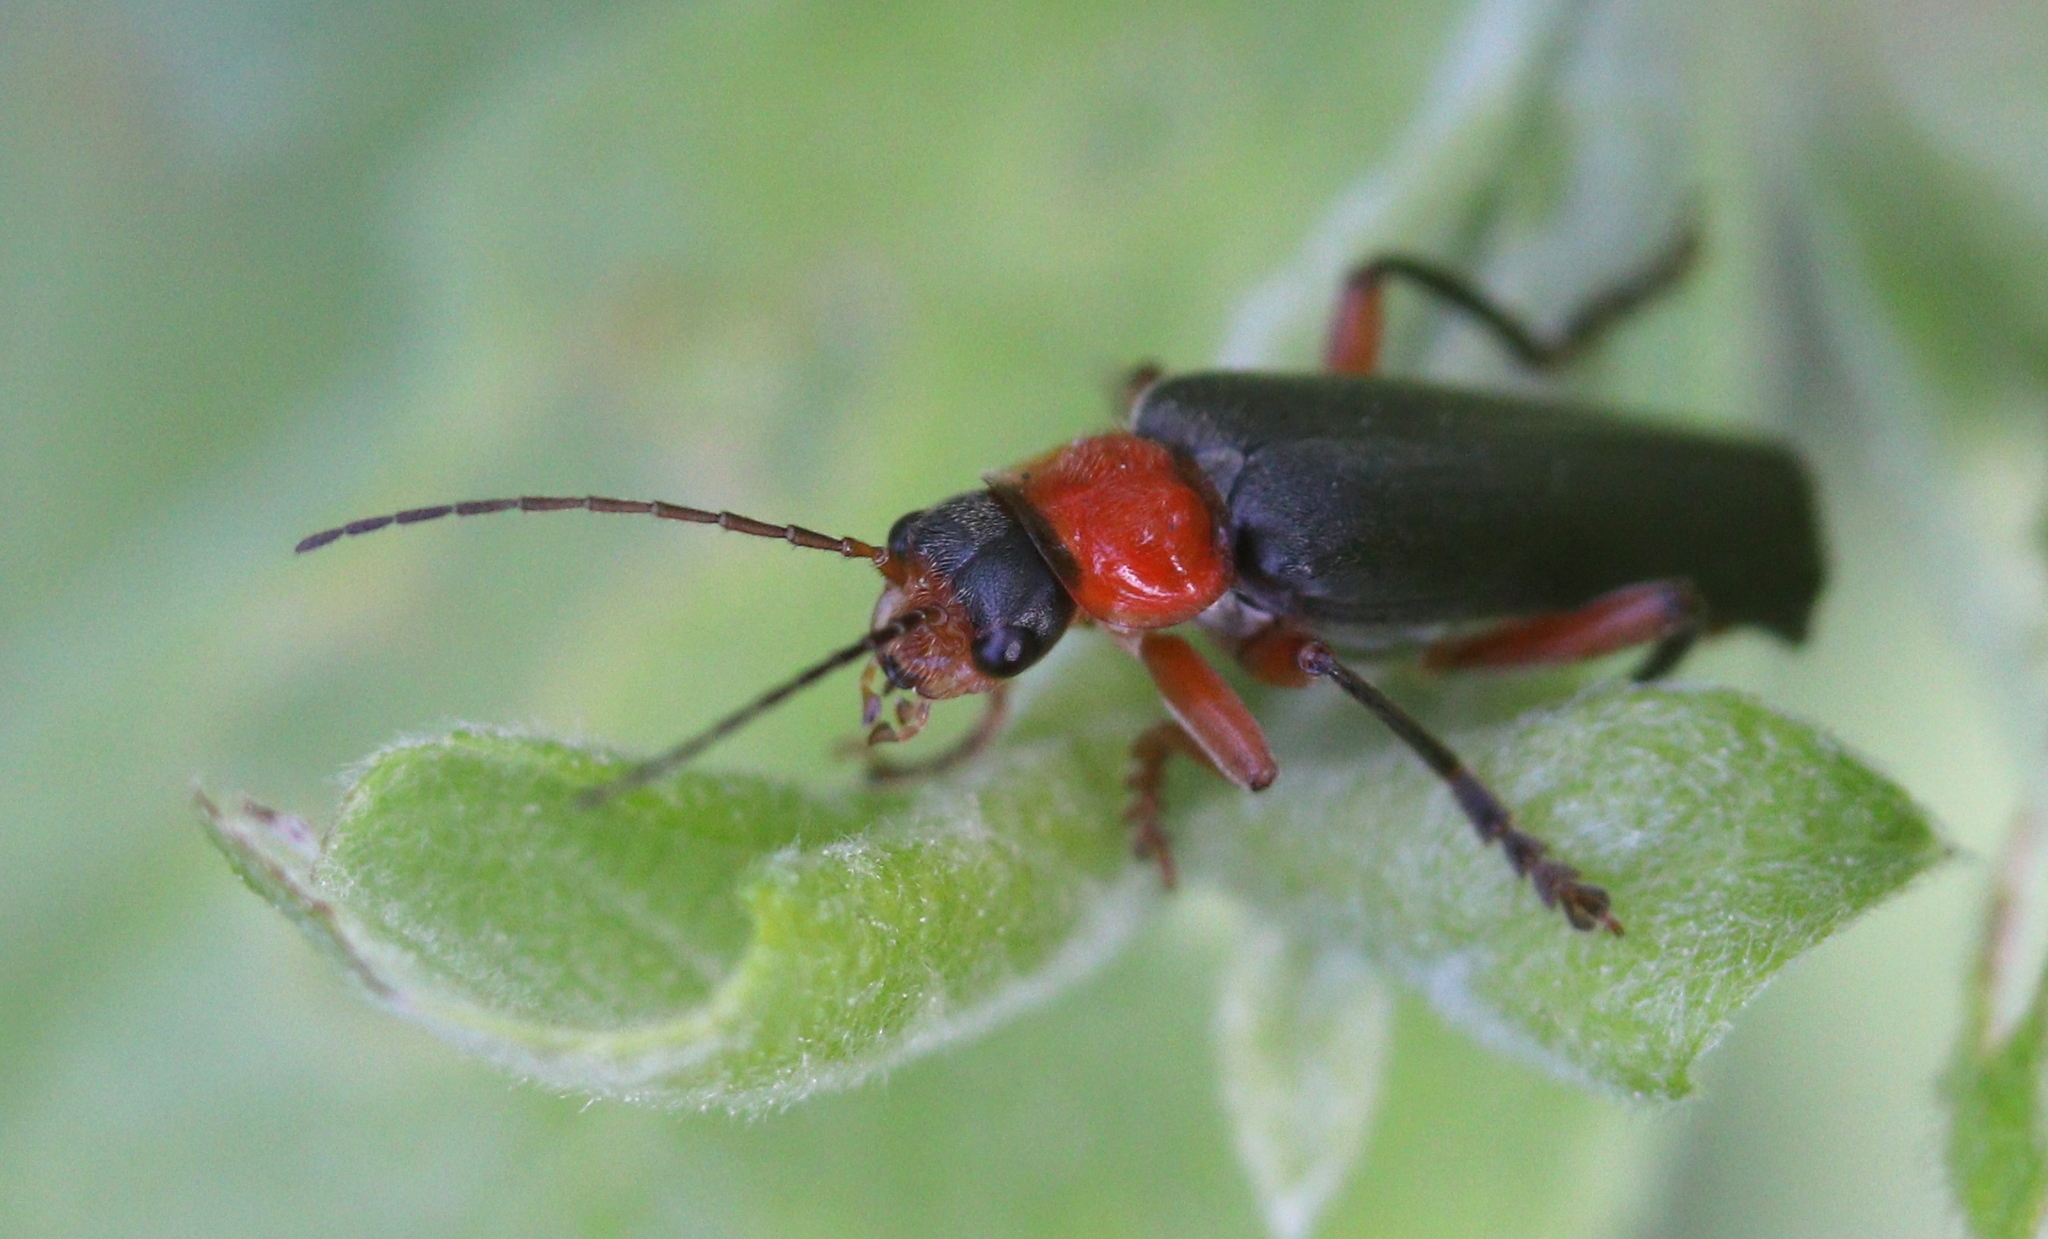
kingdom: Animalia
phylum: Arthropoda
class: Insecta
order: Coleoptera
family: Cantharidae
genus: Cantharis
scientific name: Cantharis pellucida
